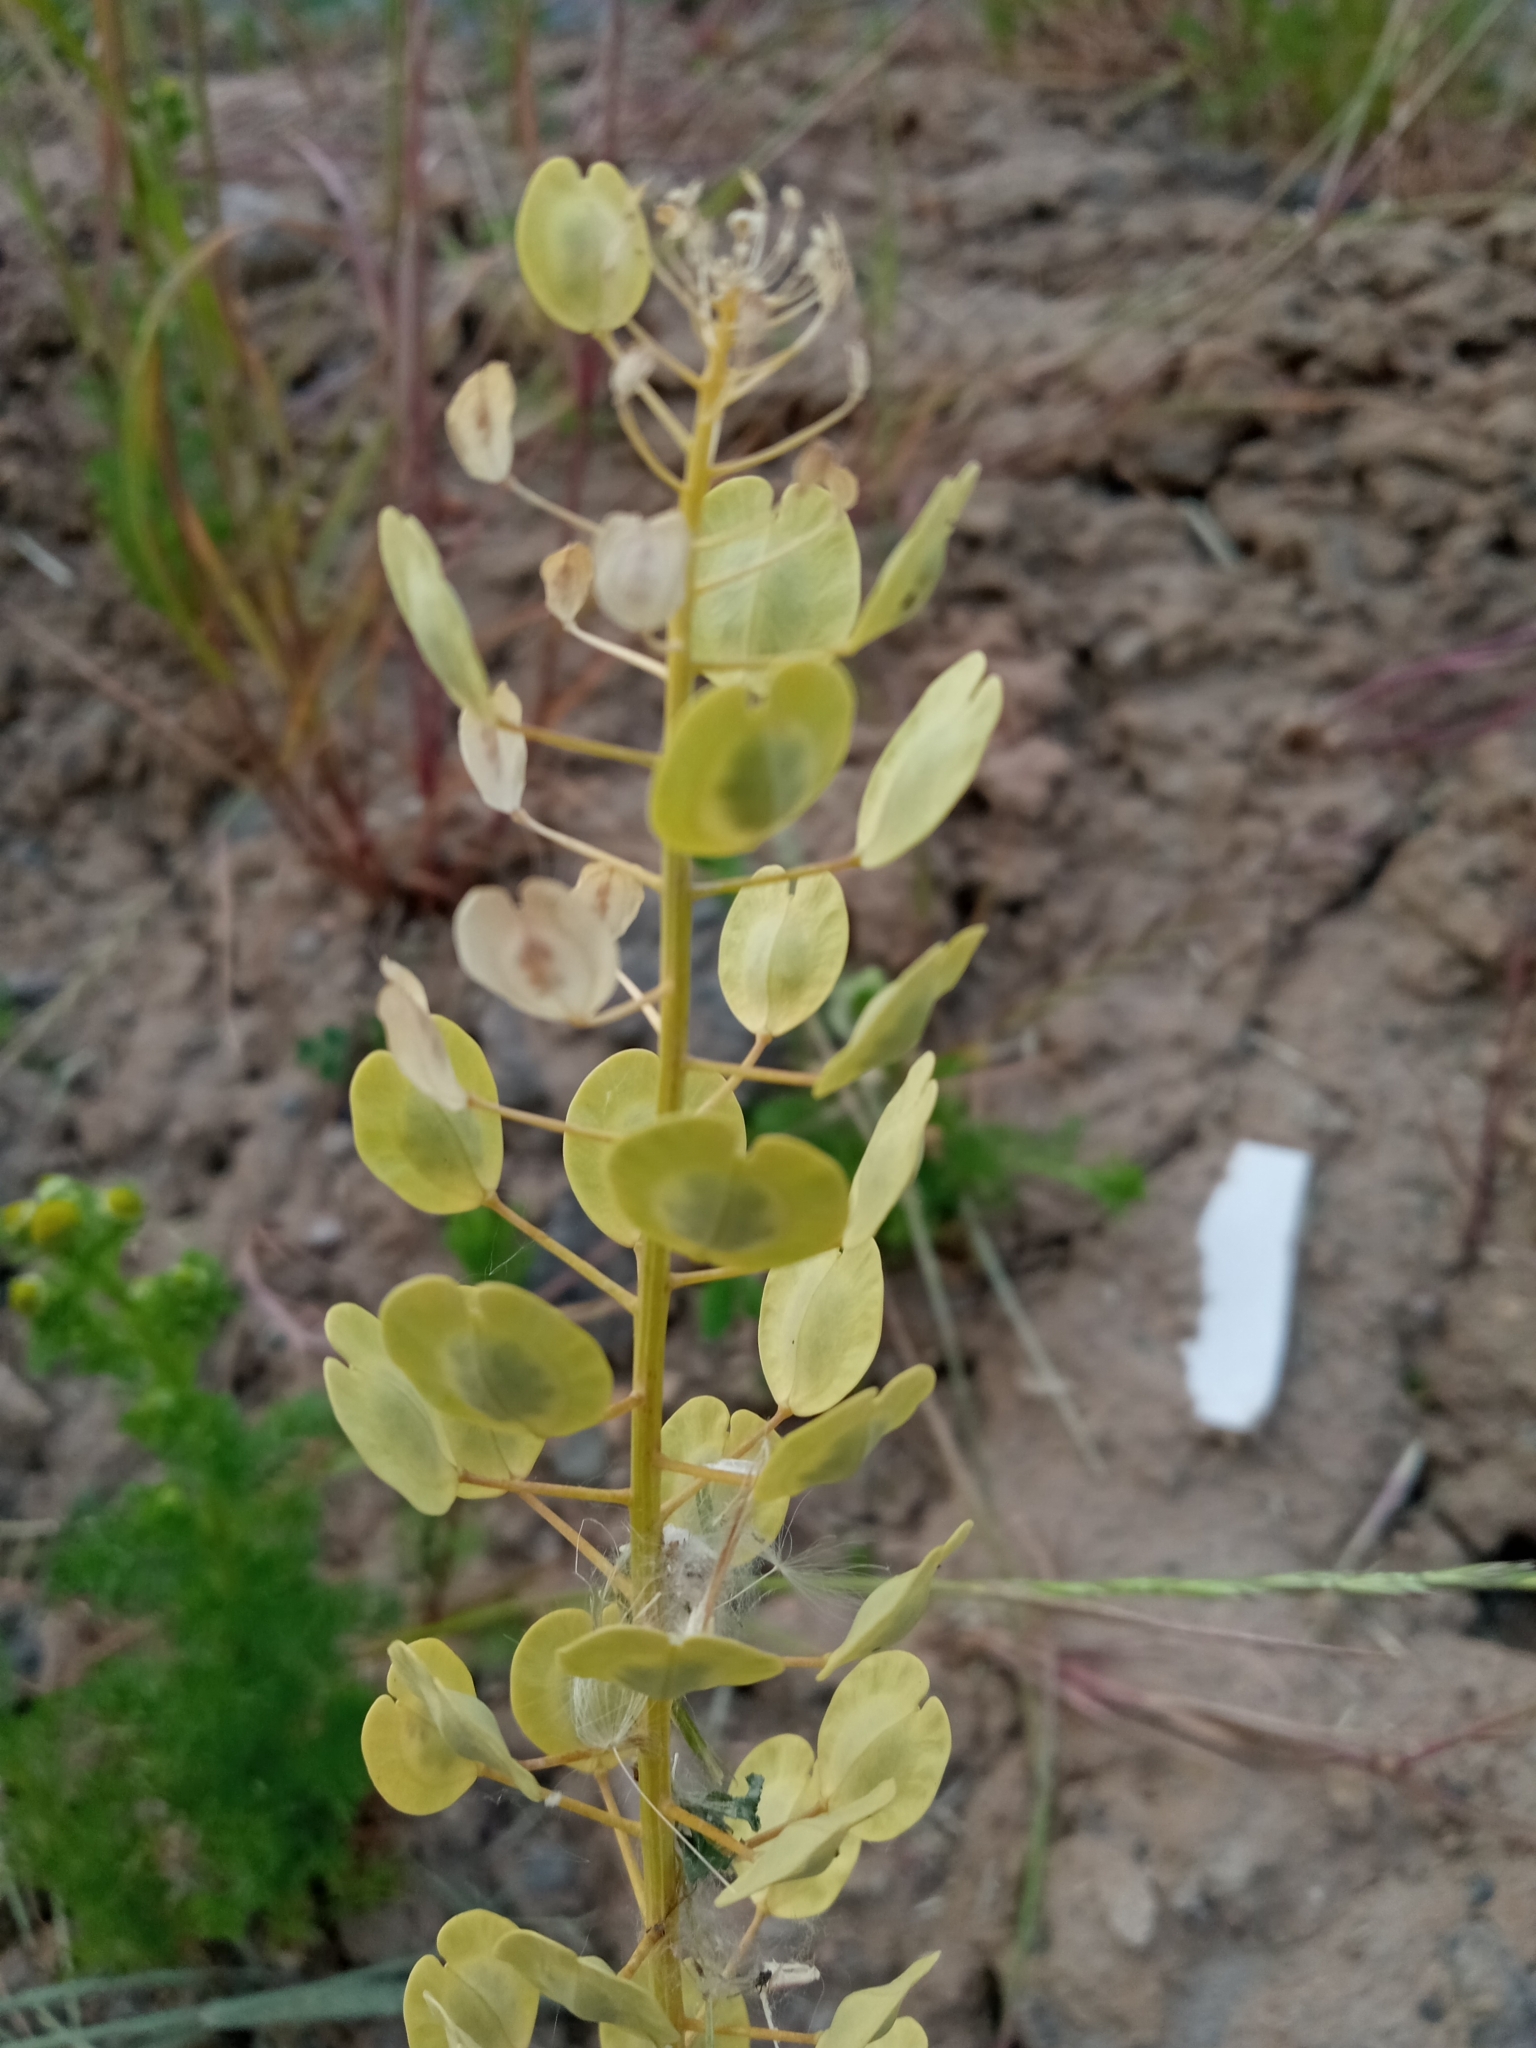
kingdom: Plantae
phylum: Tracheophyta
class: Magnoliopsida
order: Brassicales
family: Brassicaceae
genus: Thlaspi
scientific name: Thlaspi arvense
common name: Field pennycress
